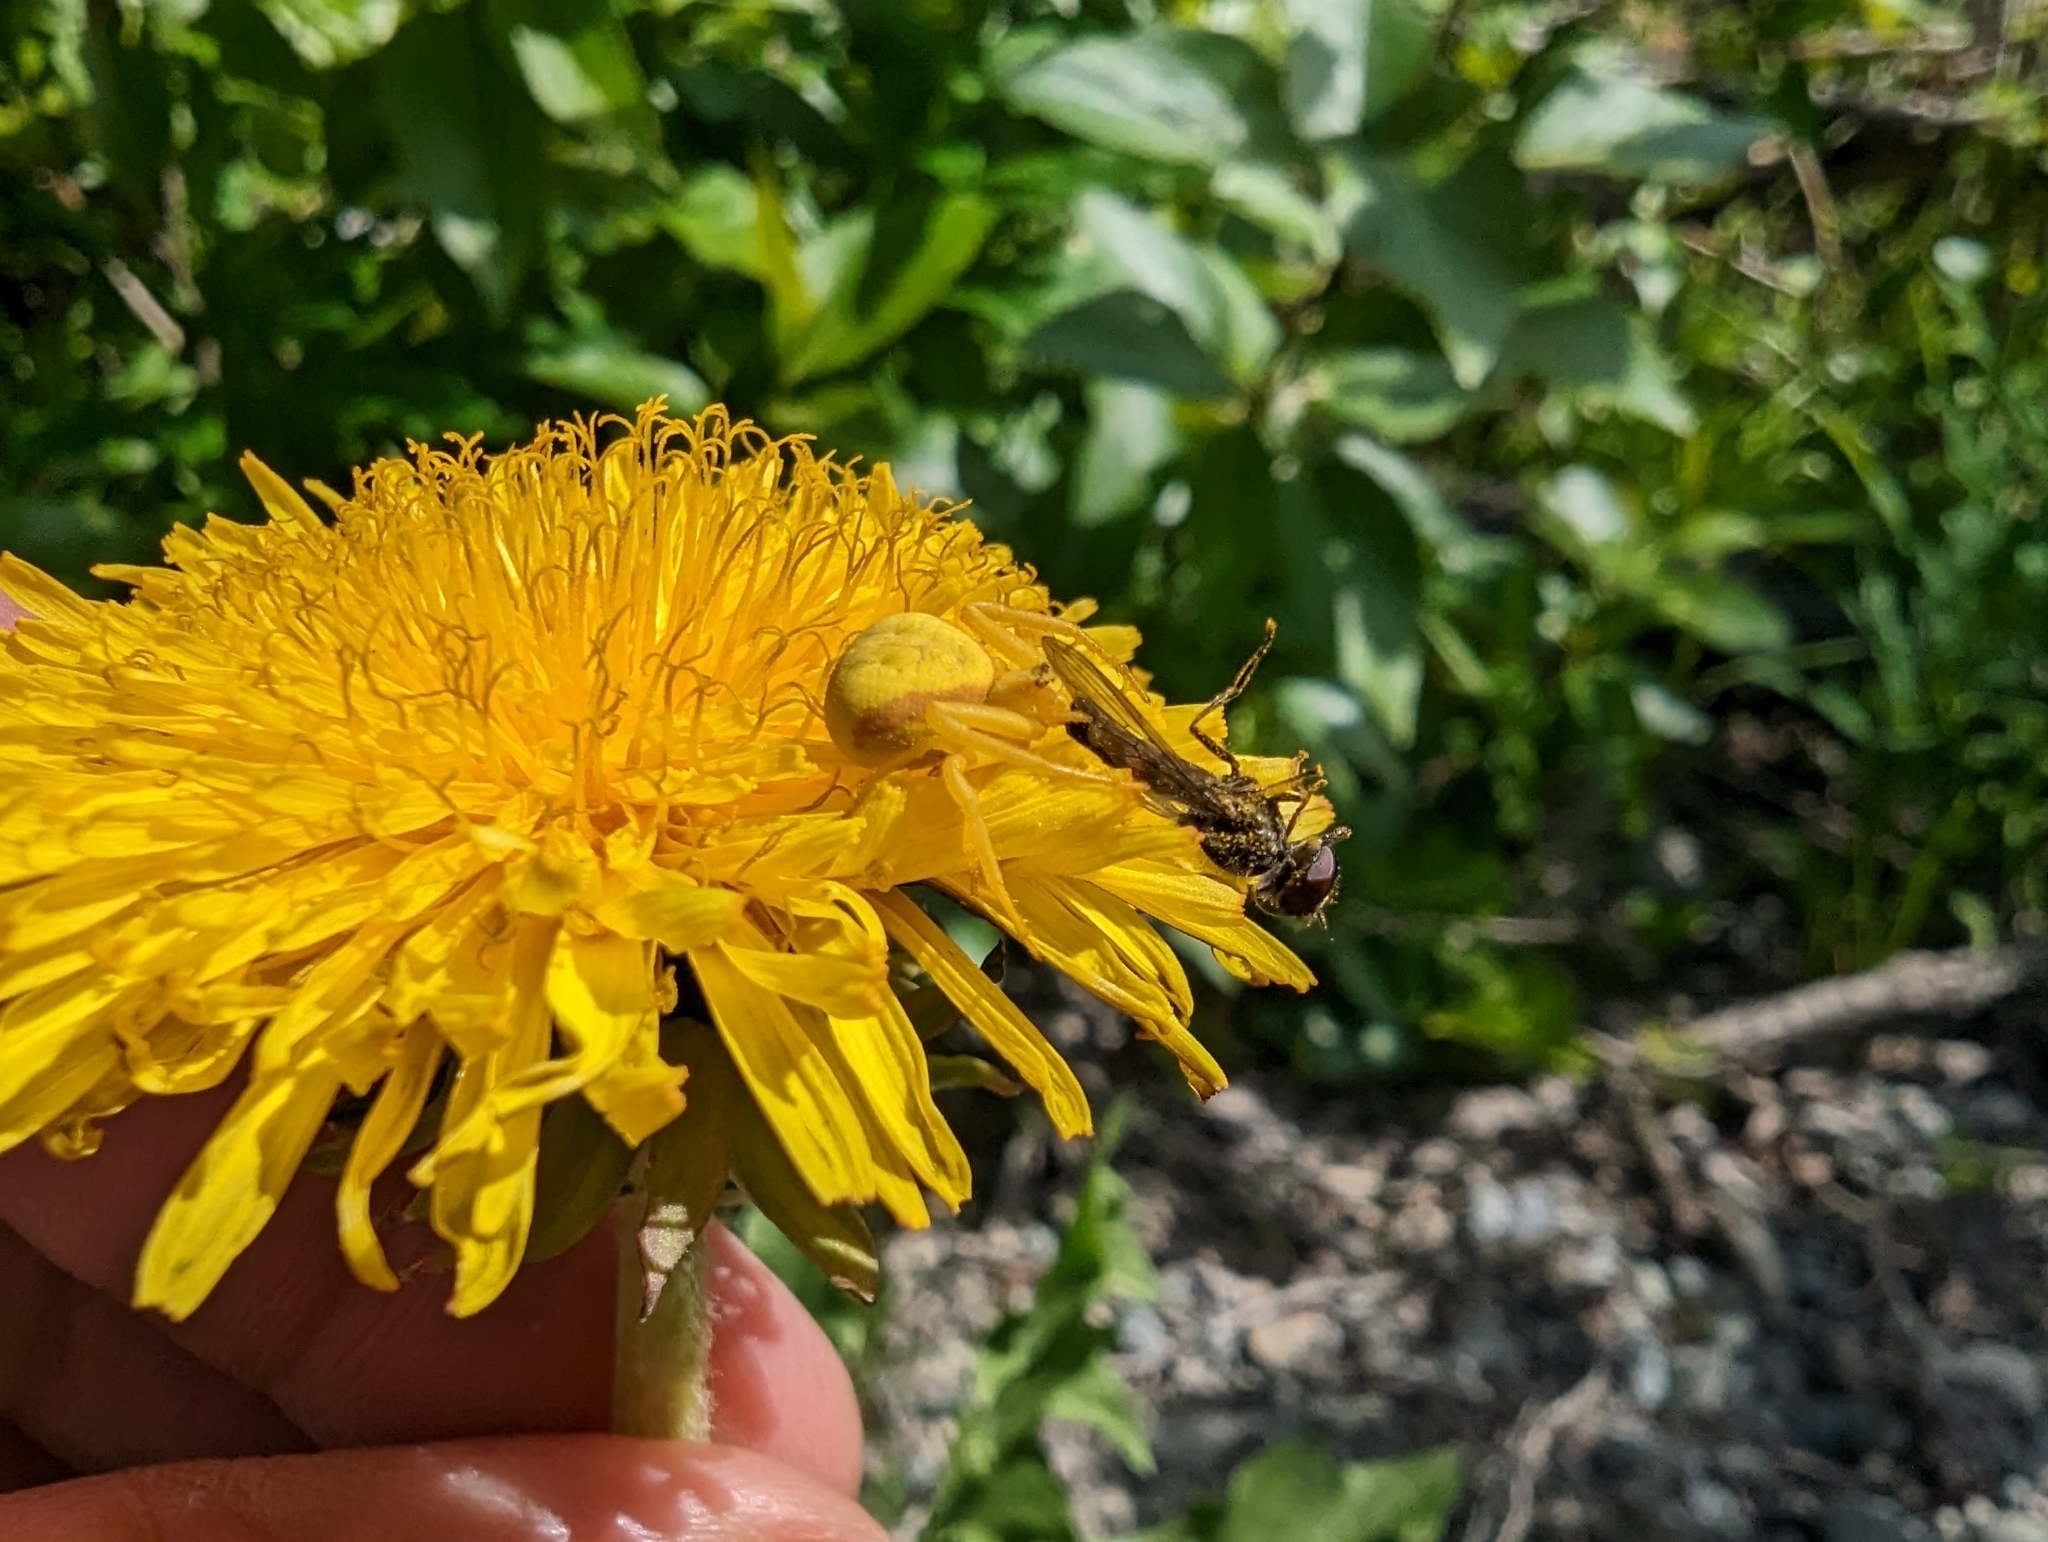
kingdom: Animalia
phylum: Arthropoda
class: Arachnida
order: Araneae
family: Thomisidae
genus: Misumena
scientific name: Misumena vatia
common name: Goldenrod crab spider
